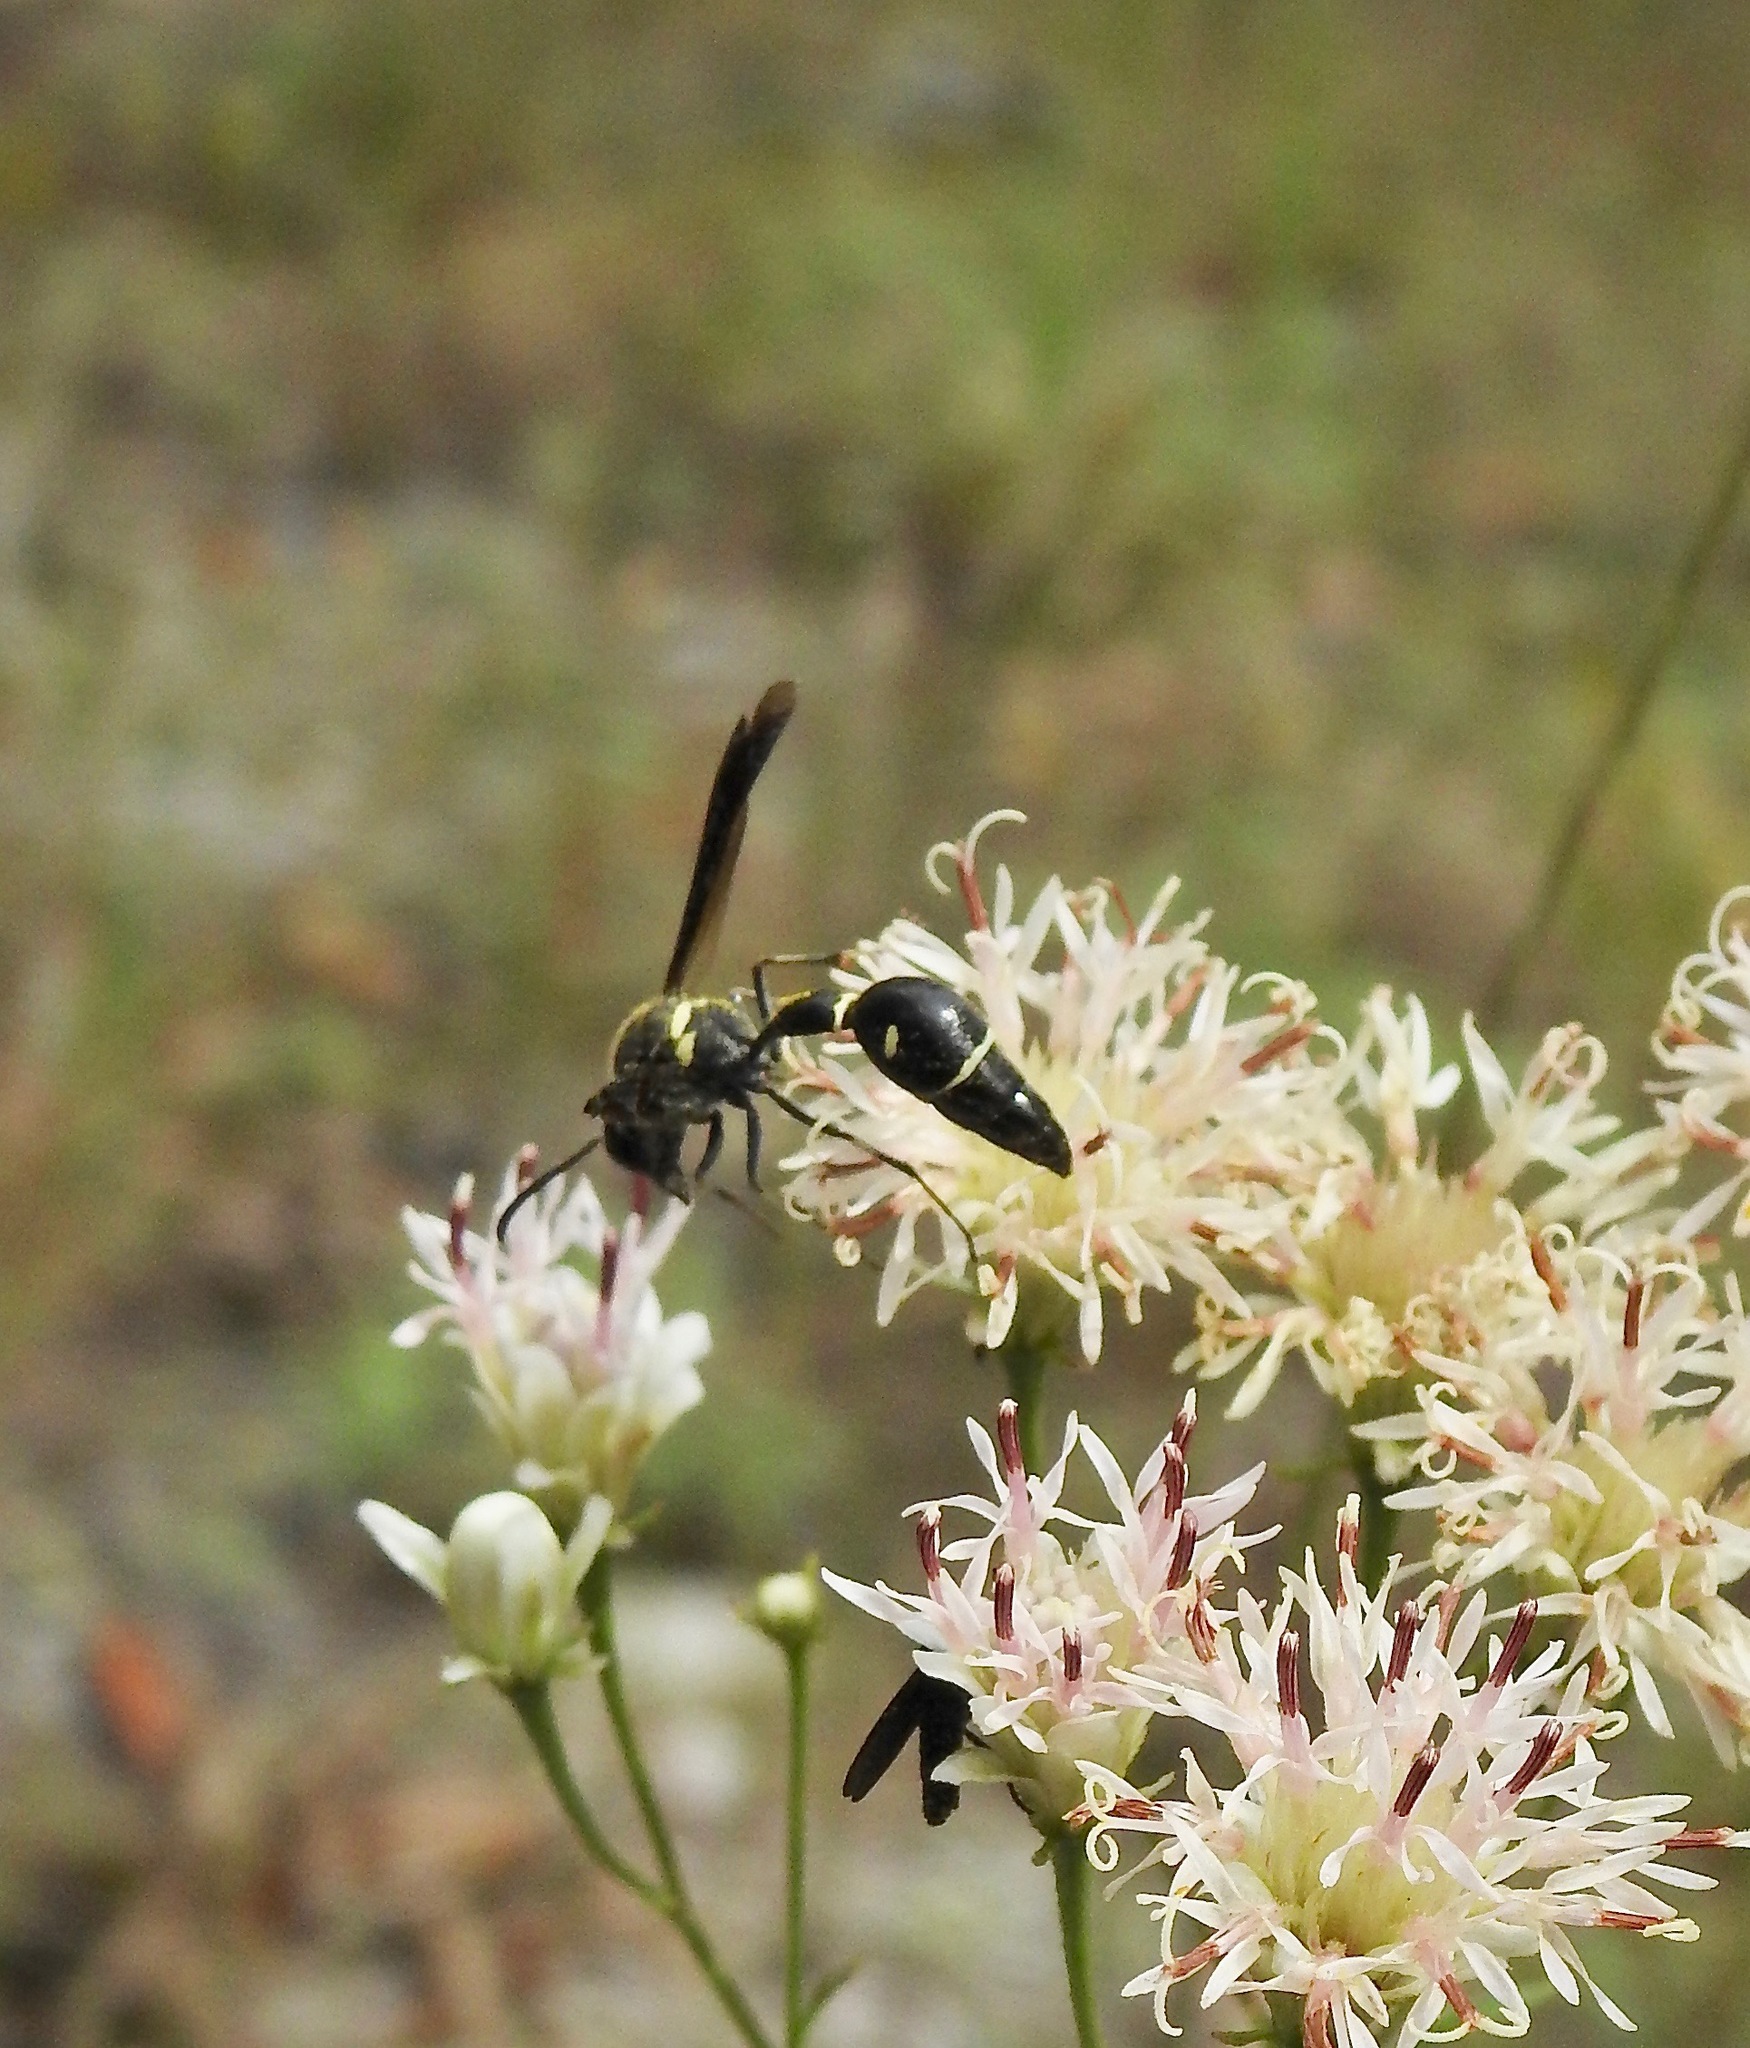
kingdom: Animalia
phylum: Arthropoda
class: Insecta
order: Hymenoptera
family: Vespidae
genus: Eumenes
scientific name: Eumenes fraternus
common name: Fraternal potter wasp
